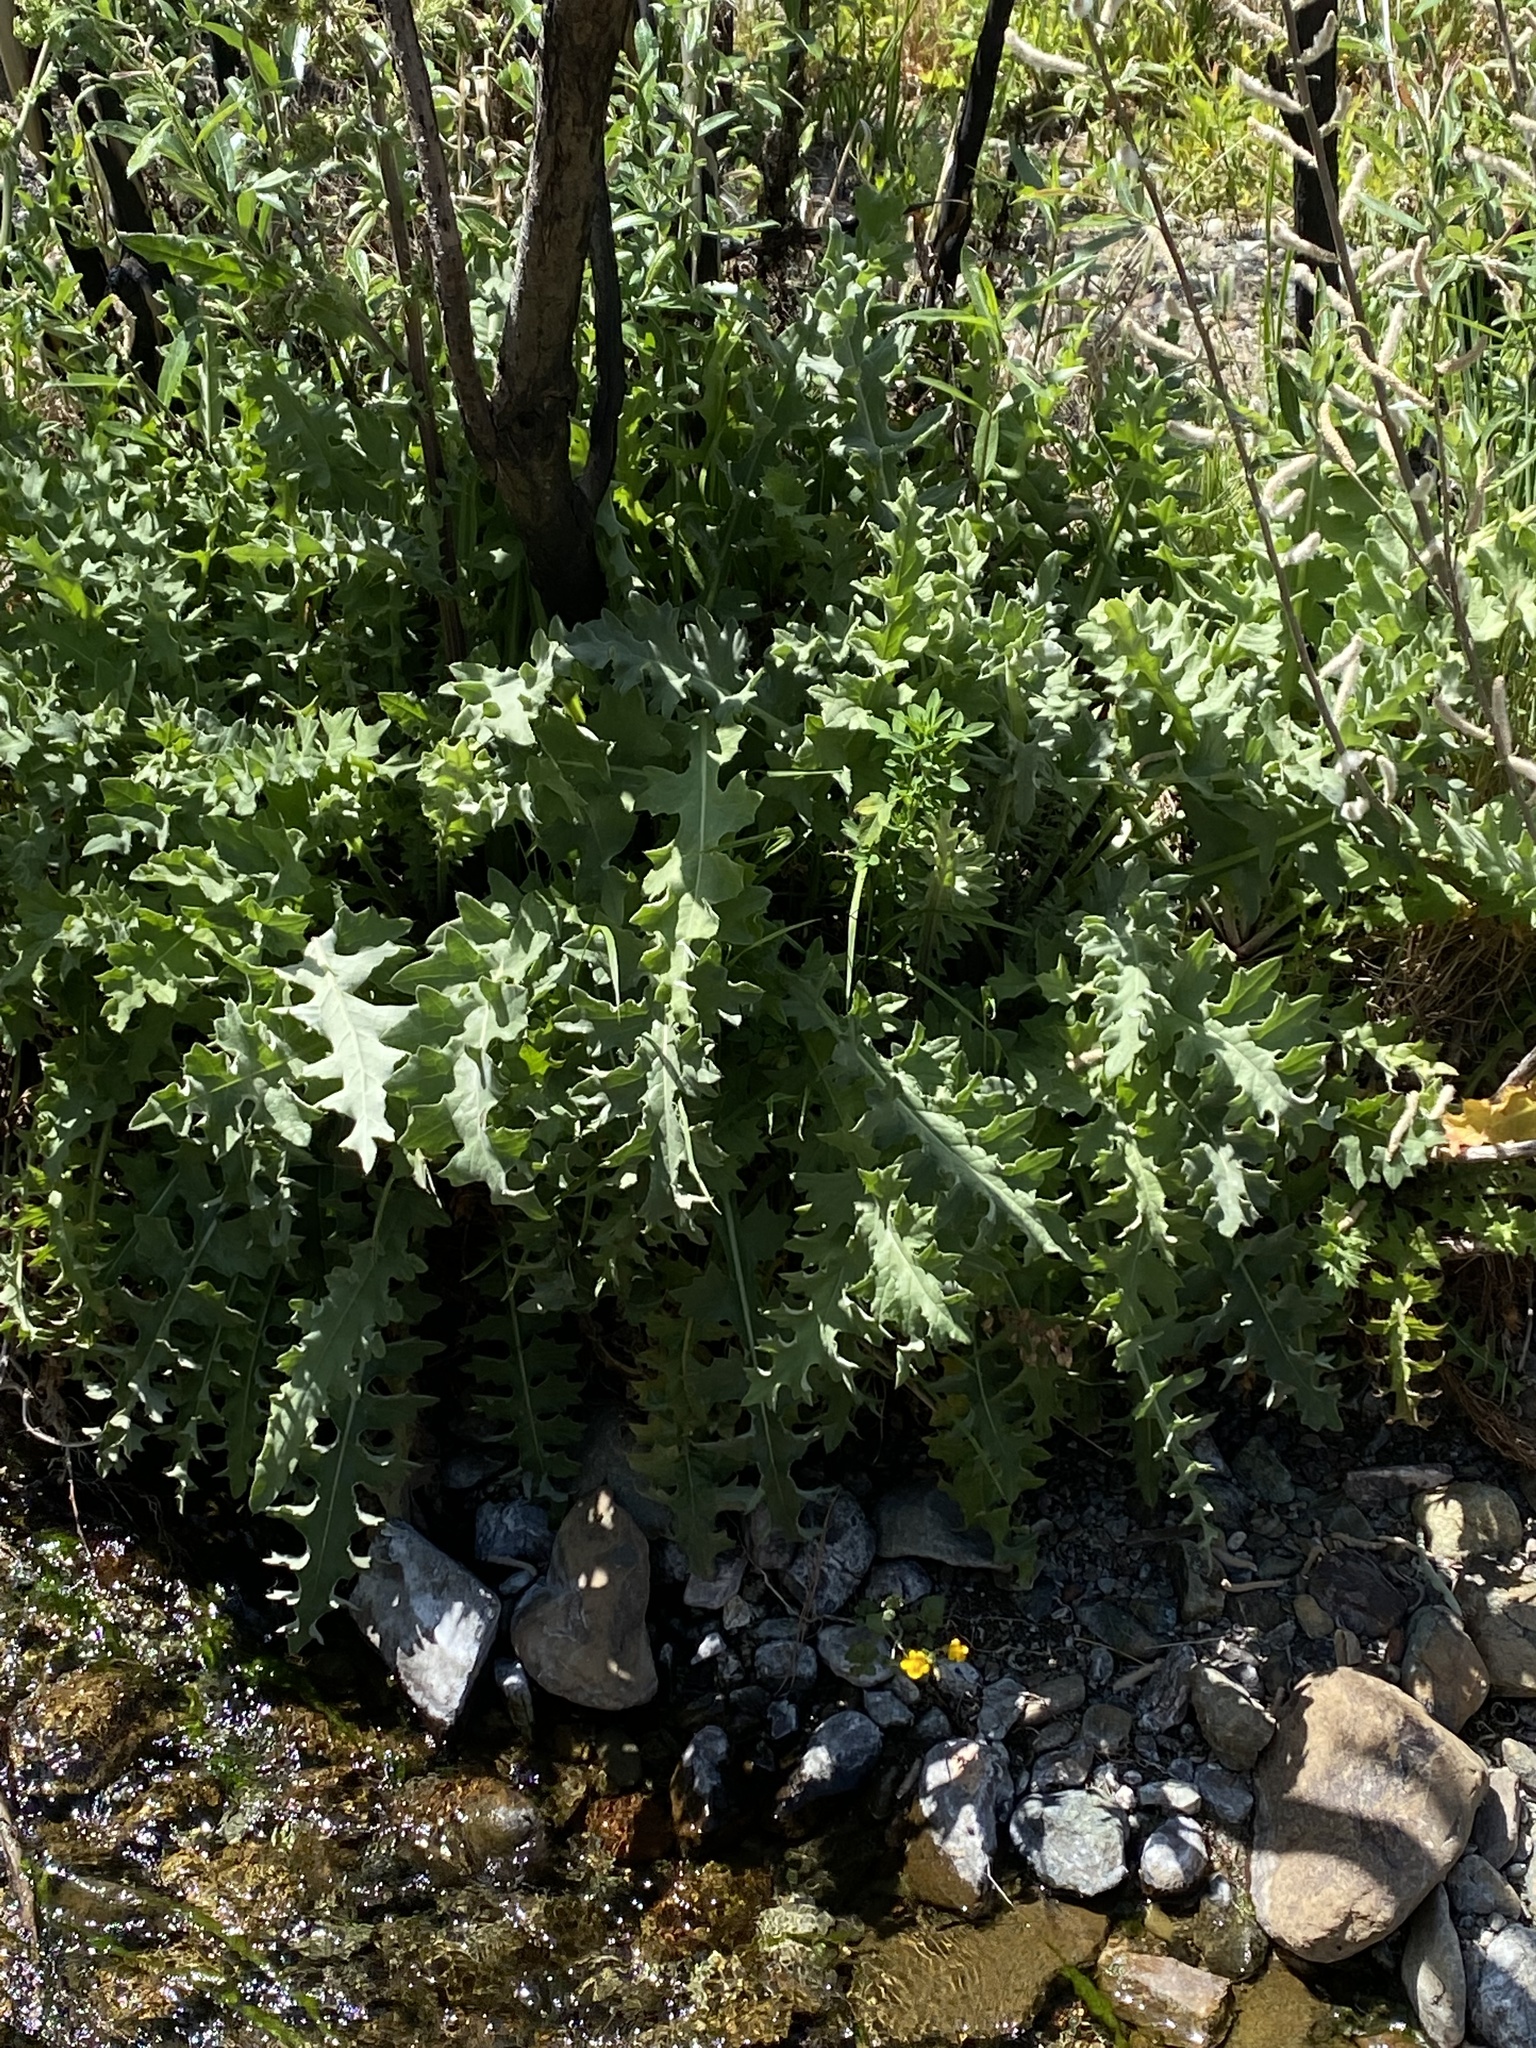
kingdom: Plantae
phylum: Tracheophyta
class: Magnoliopsida
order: Asterales
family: Asteraceae
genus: Cirsium
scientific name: Cirsium fontinale
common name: Fountain thistle
